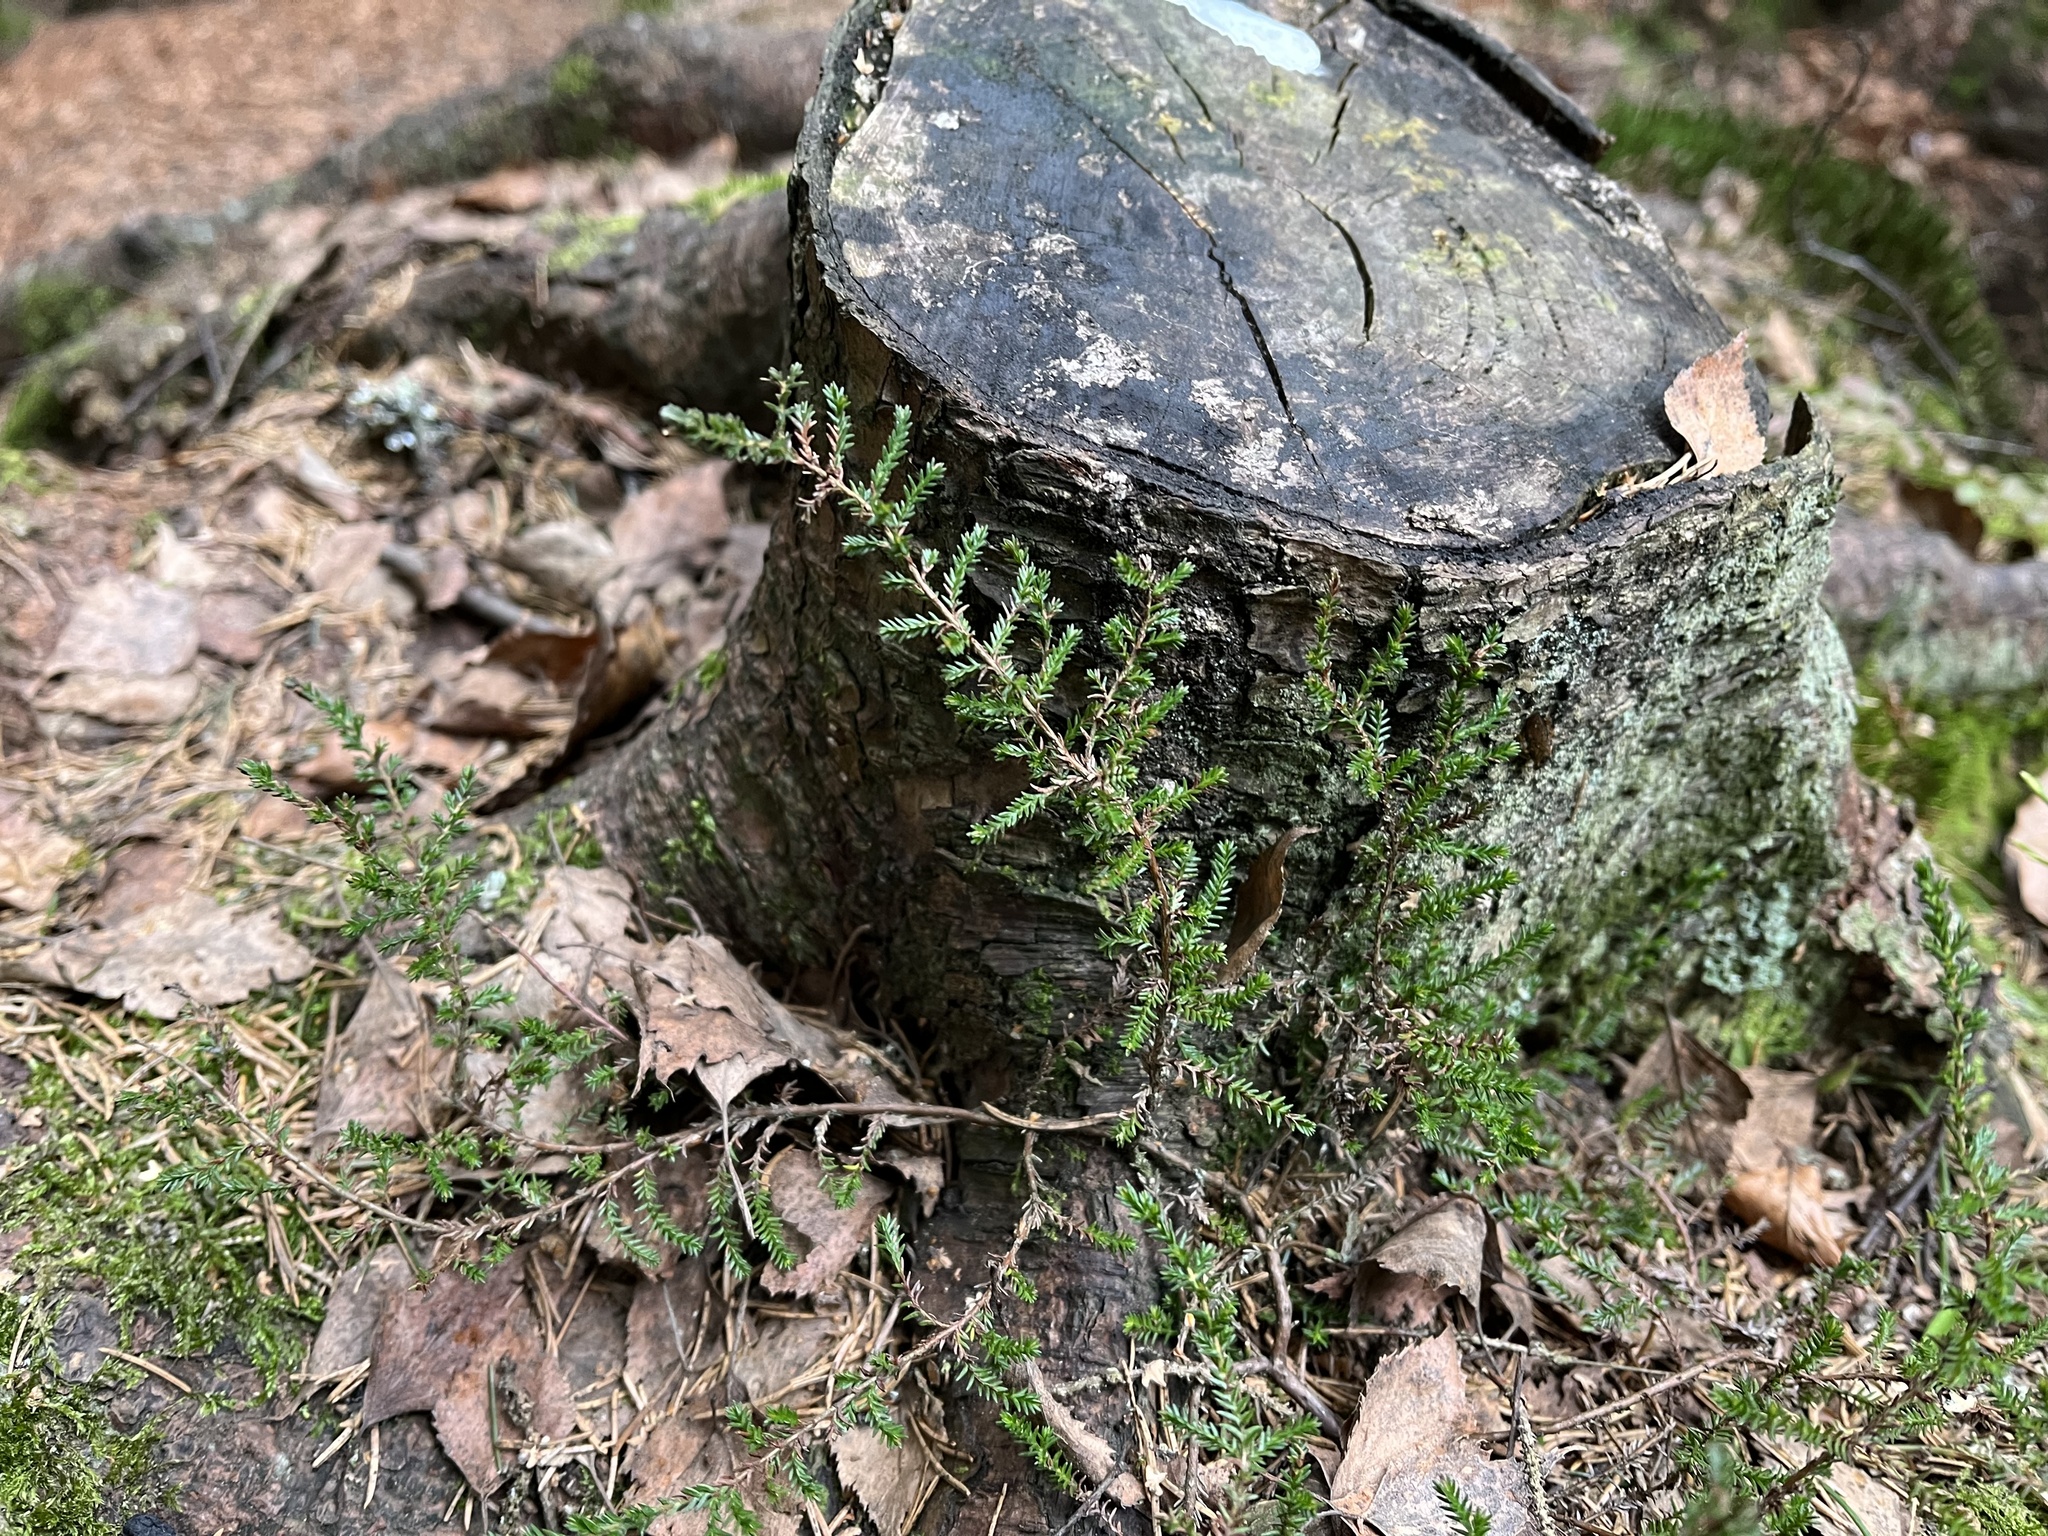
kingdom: Plantae
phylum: Tracheophyta
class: Magnoliopsida
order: Ericales
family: Ericaceae
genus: Calluna
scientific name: Calluna vulgaris
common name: Heather
